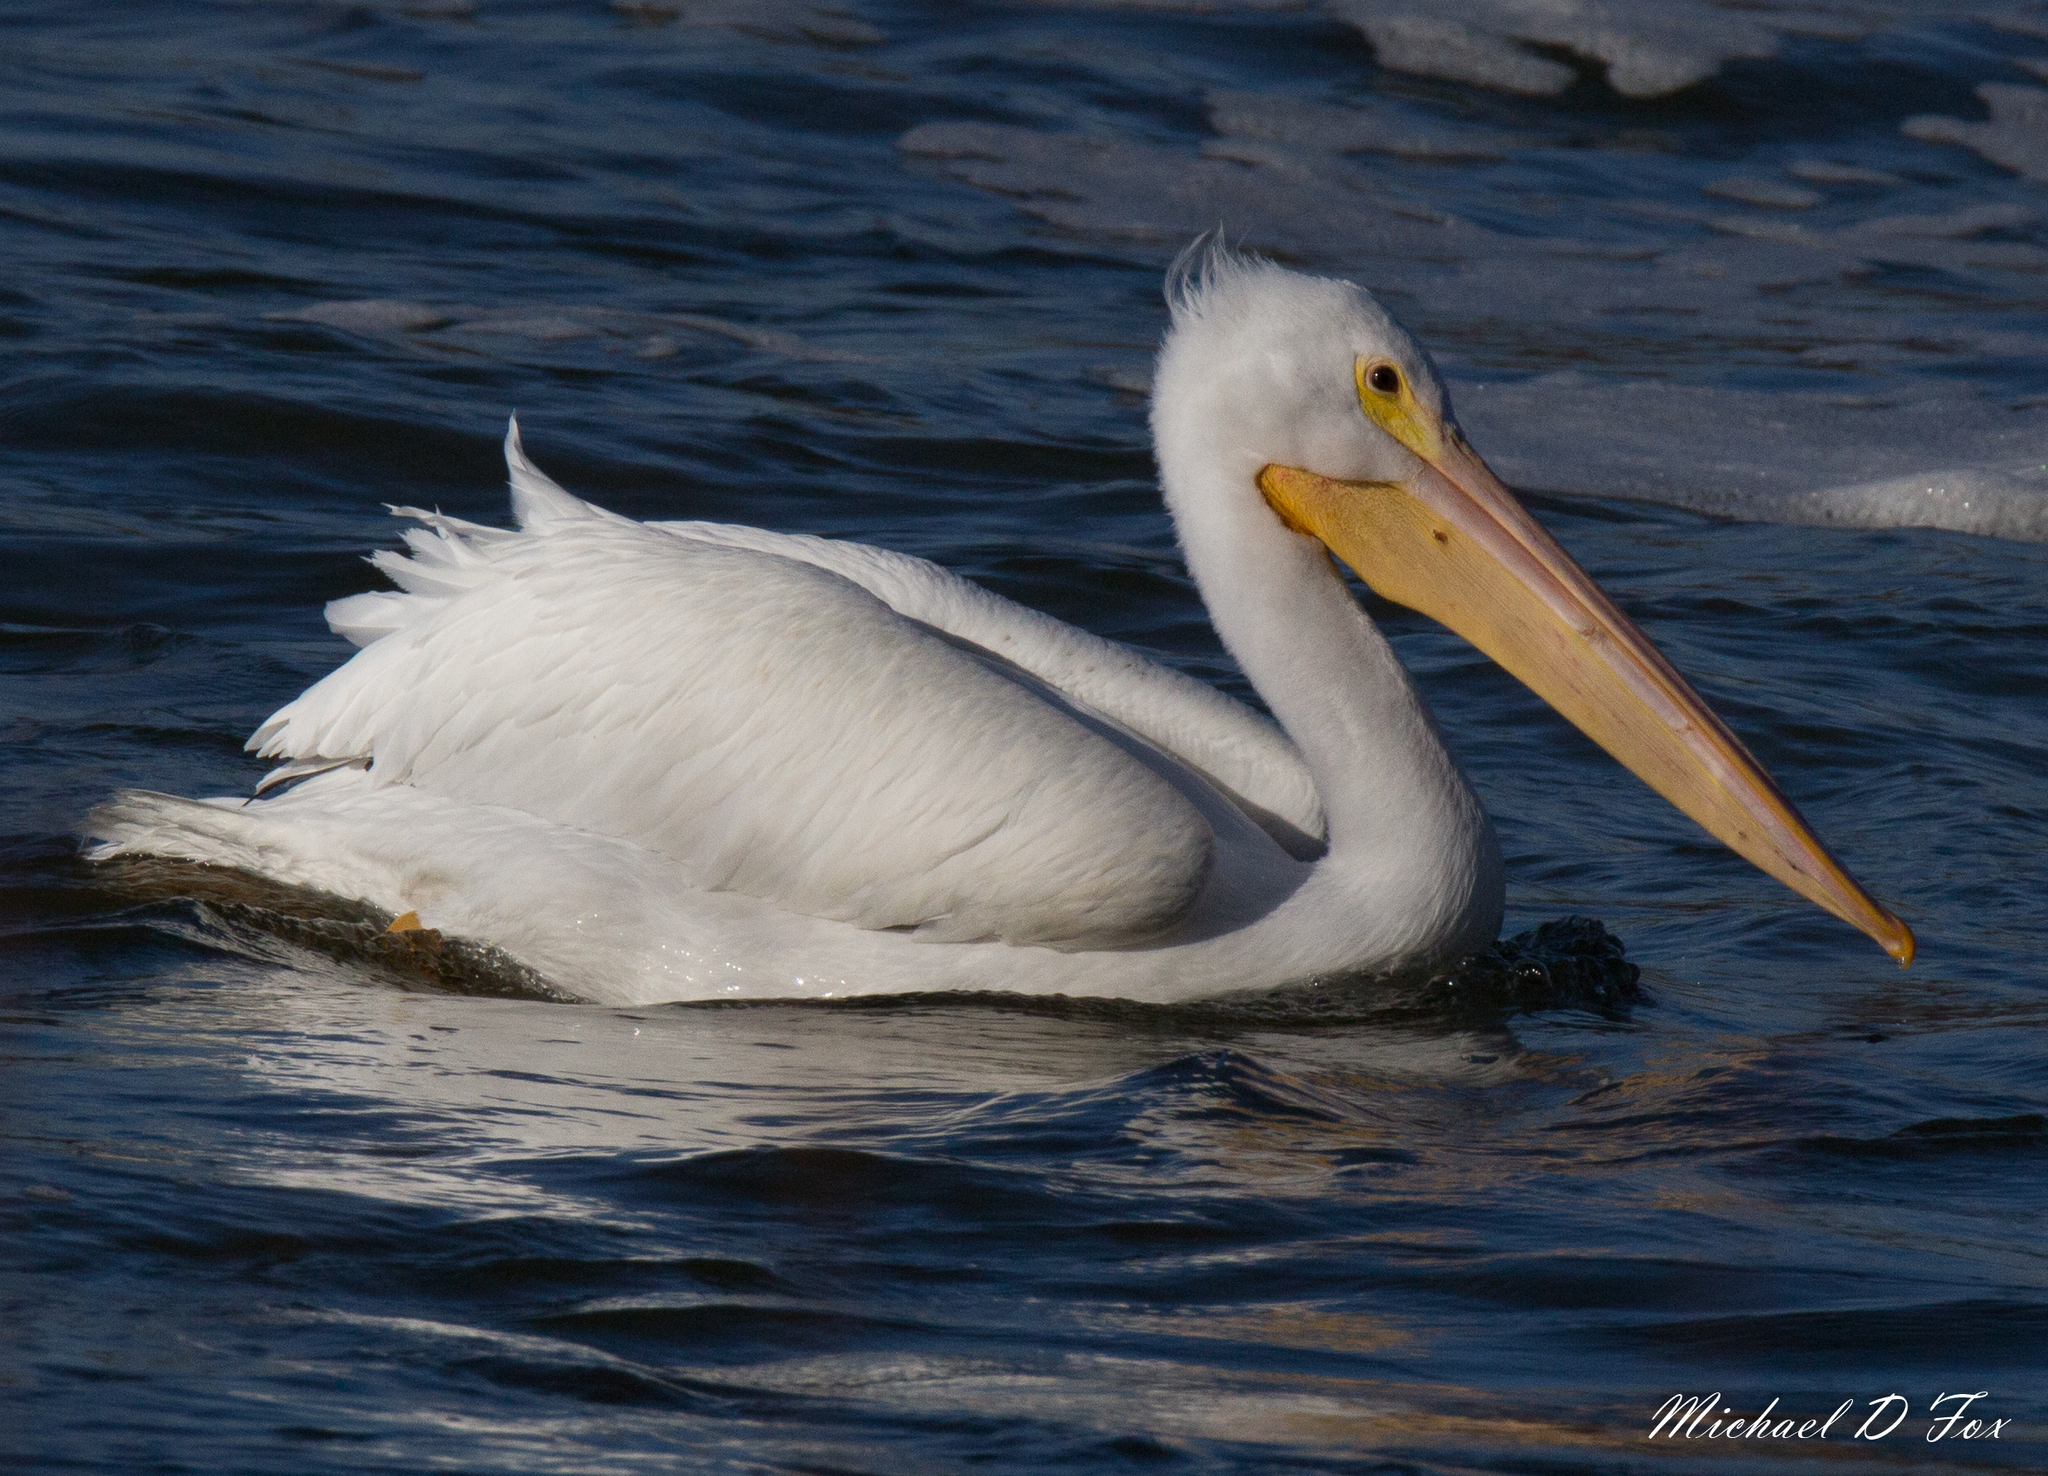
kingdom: Animalia
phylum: Chordata
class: Aves
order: Pelecaniformes
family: Pelecanidae
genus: Pelecanus
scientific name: Pelecanus erythrorhynchos
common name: American white pelican
